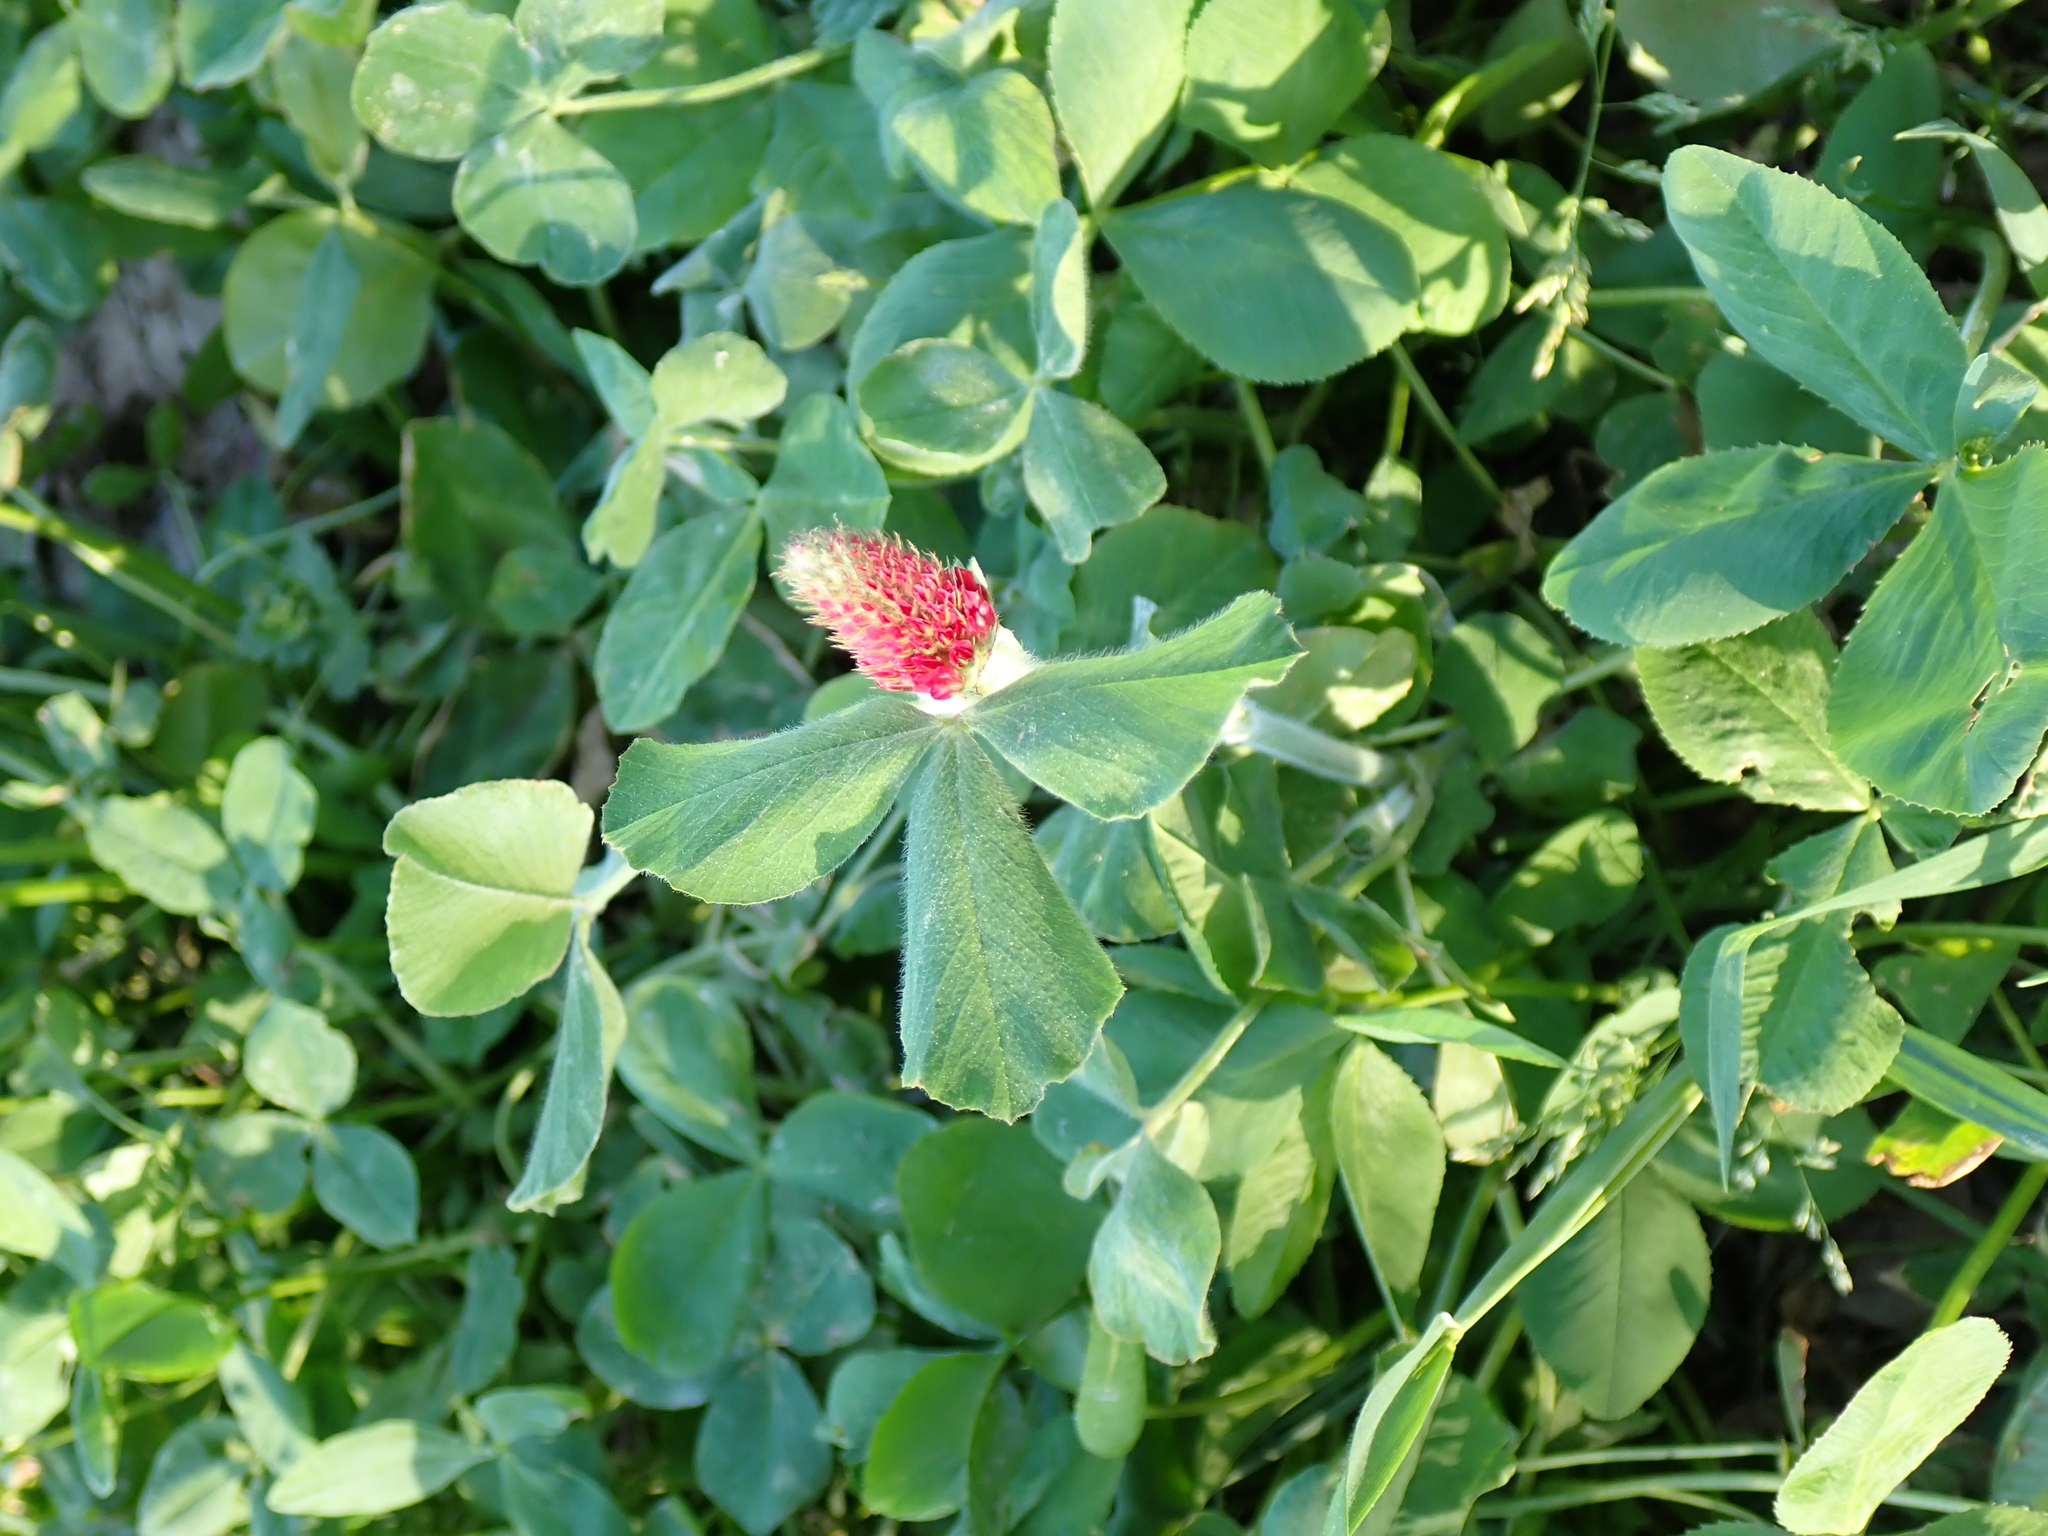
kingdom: Plantae
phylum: Tracheophyta
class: Magnoliopsida
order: Fabales
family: Fabaceae
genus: Trifolium
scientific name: Trifolium incarnatum
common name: Crimson clover
